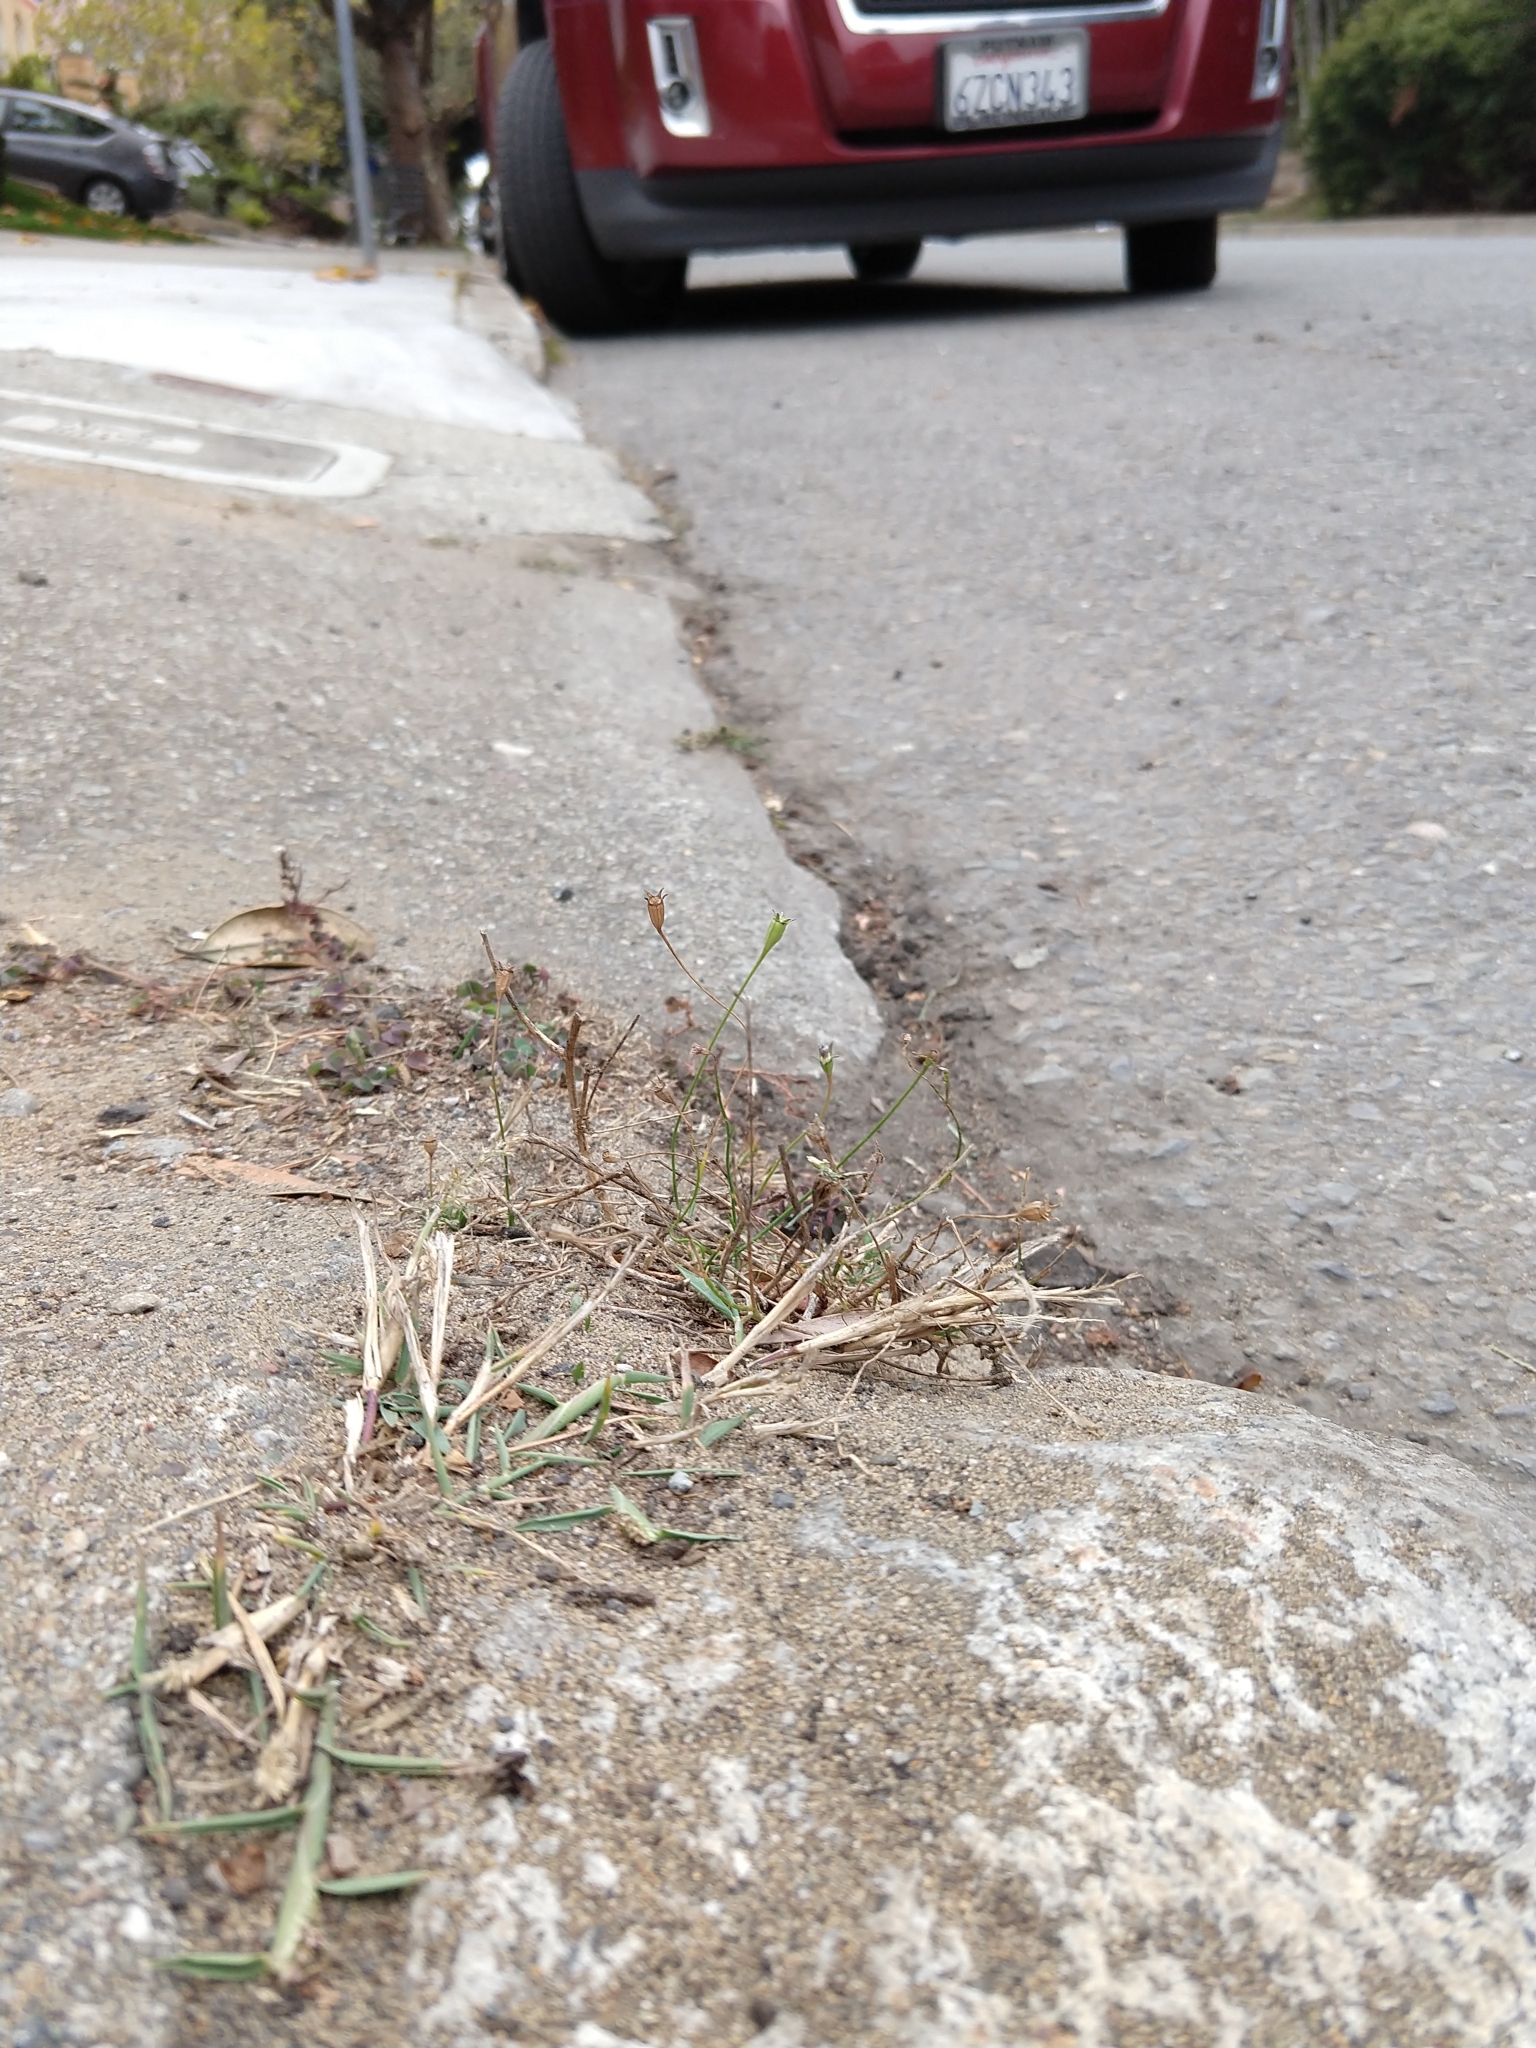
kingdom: Plantae
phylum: Tracheophyta
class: Magnoliopsida
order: Asterales
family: Campanulaceae
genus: Wahlenbergia
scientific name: Wahlenbergia marginata
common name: Southern rockbell
